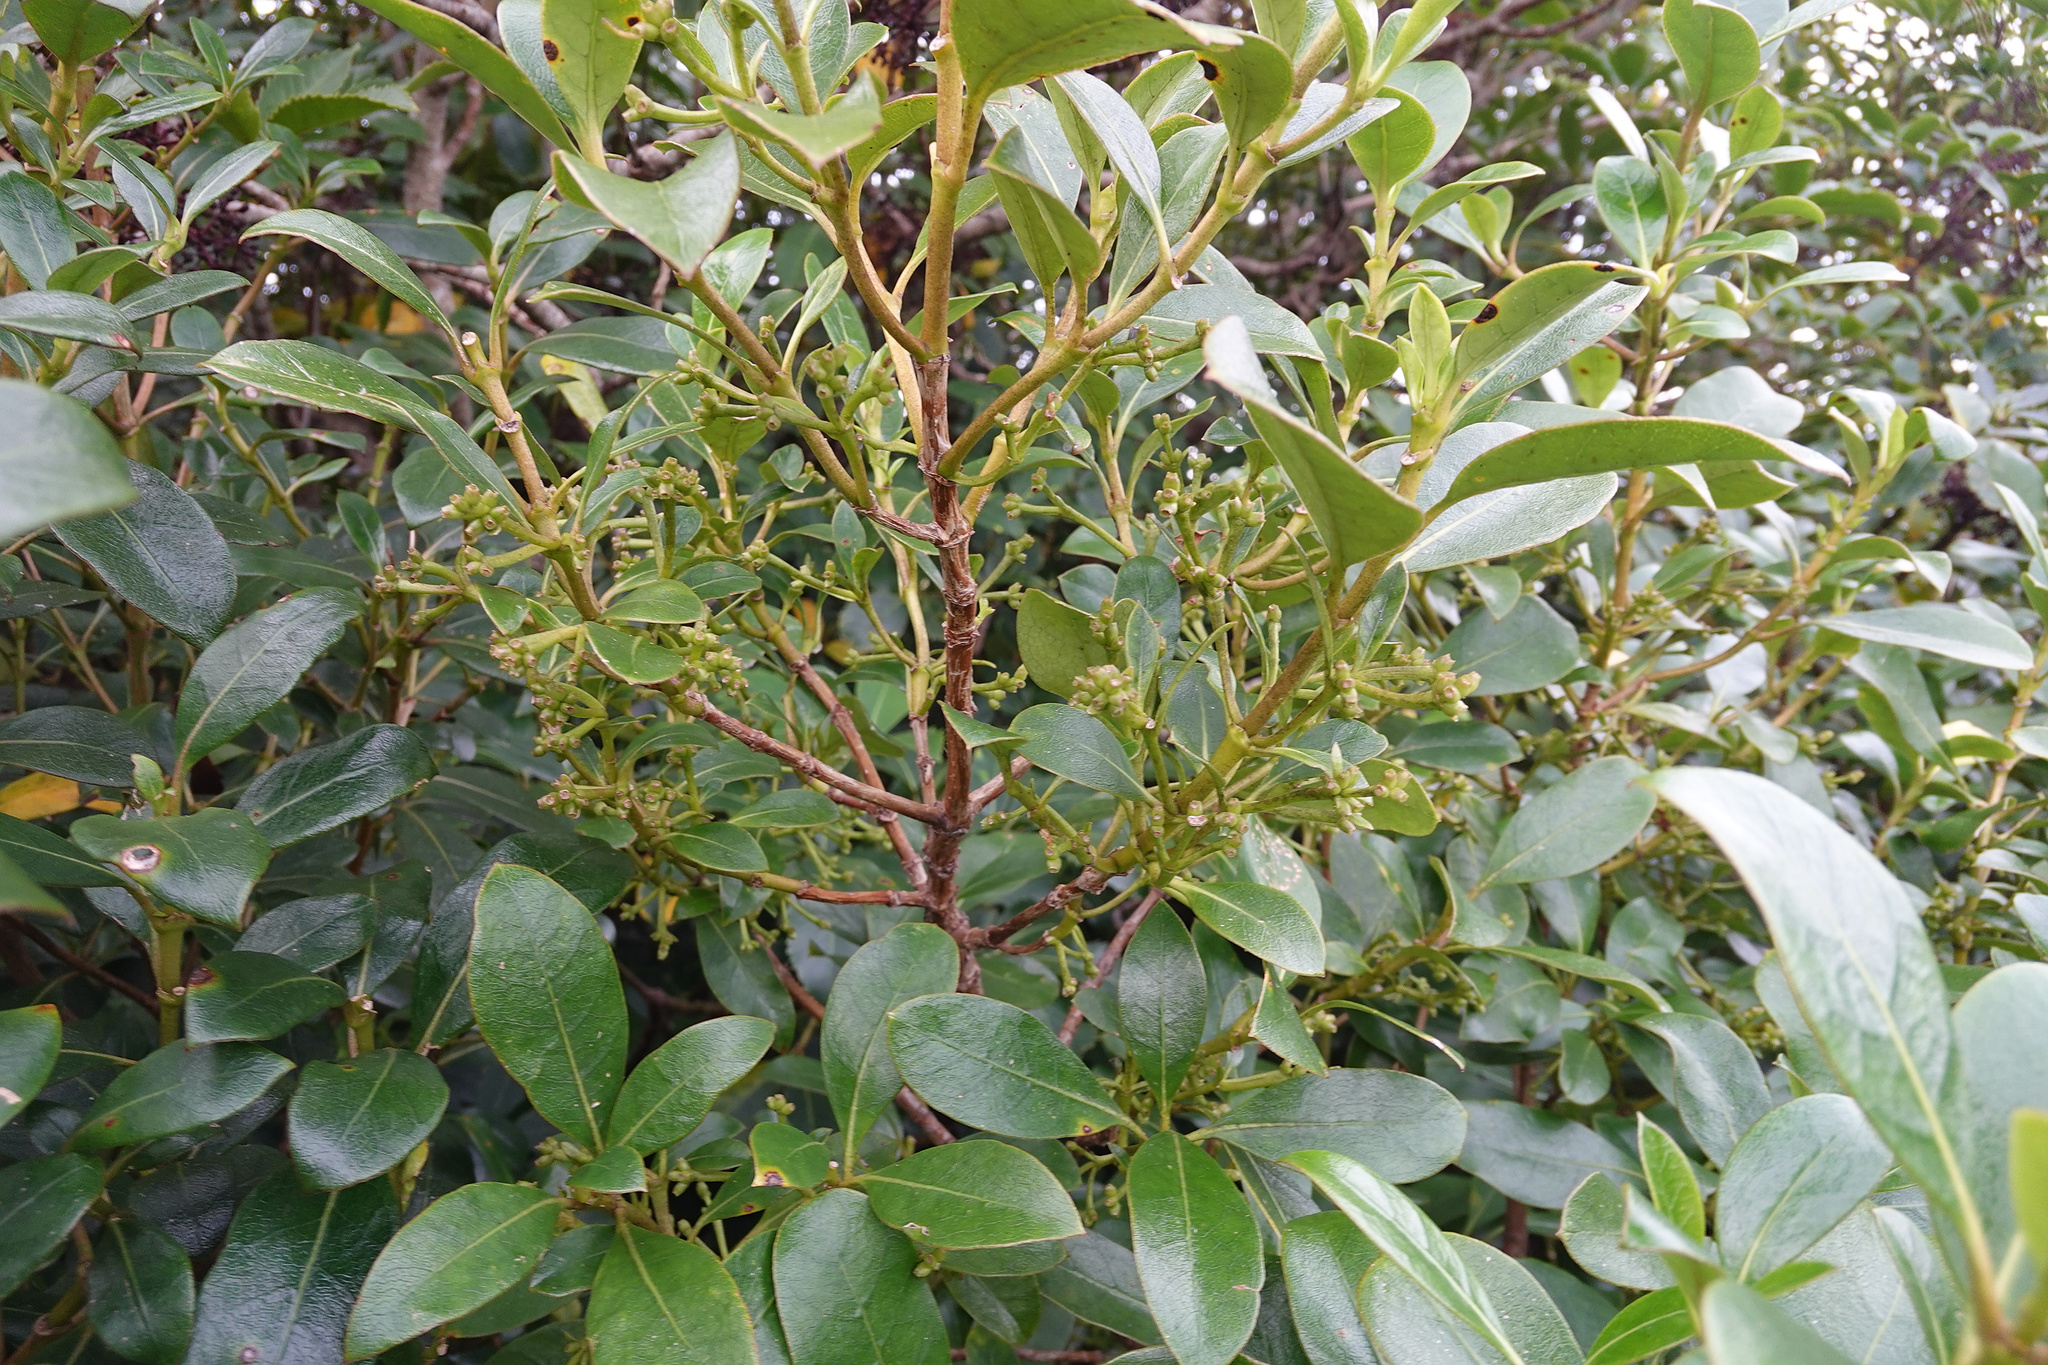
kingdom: Plantae
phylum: Tracheophyta
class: Magnoliopsida
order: Gentianales
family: Rubiaceae
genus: Coprosma
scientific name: Coprosma lucida
